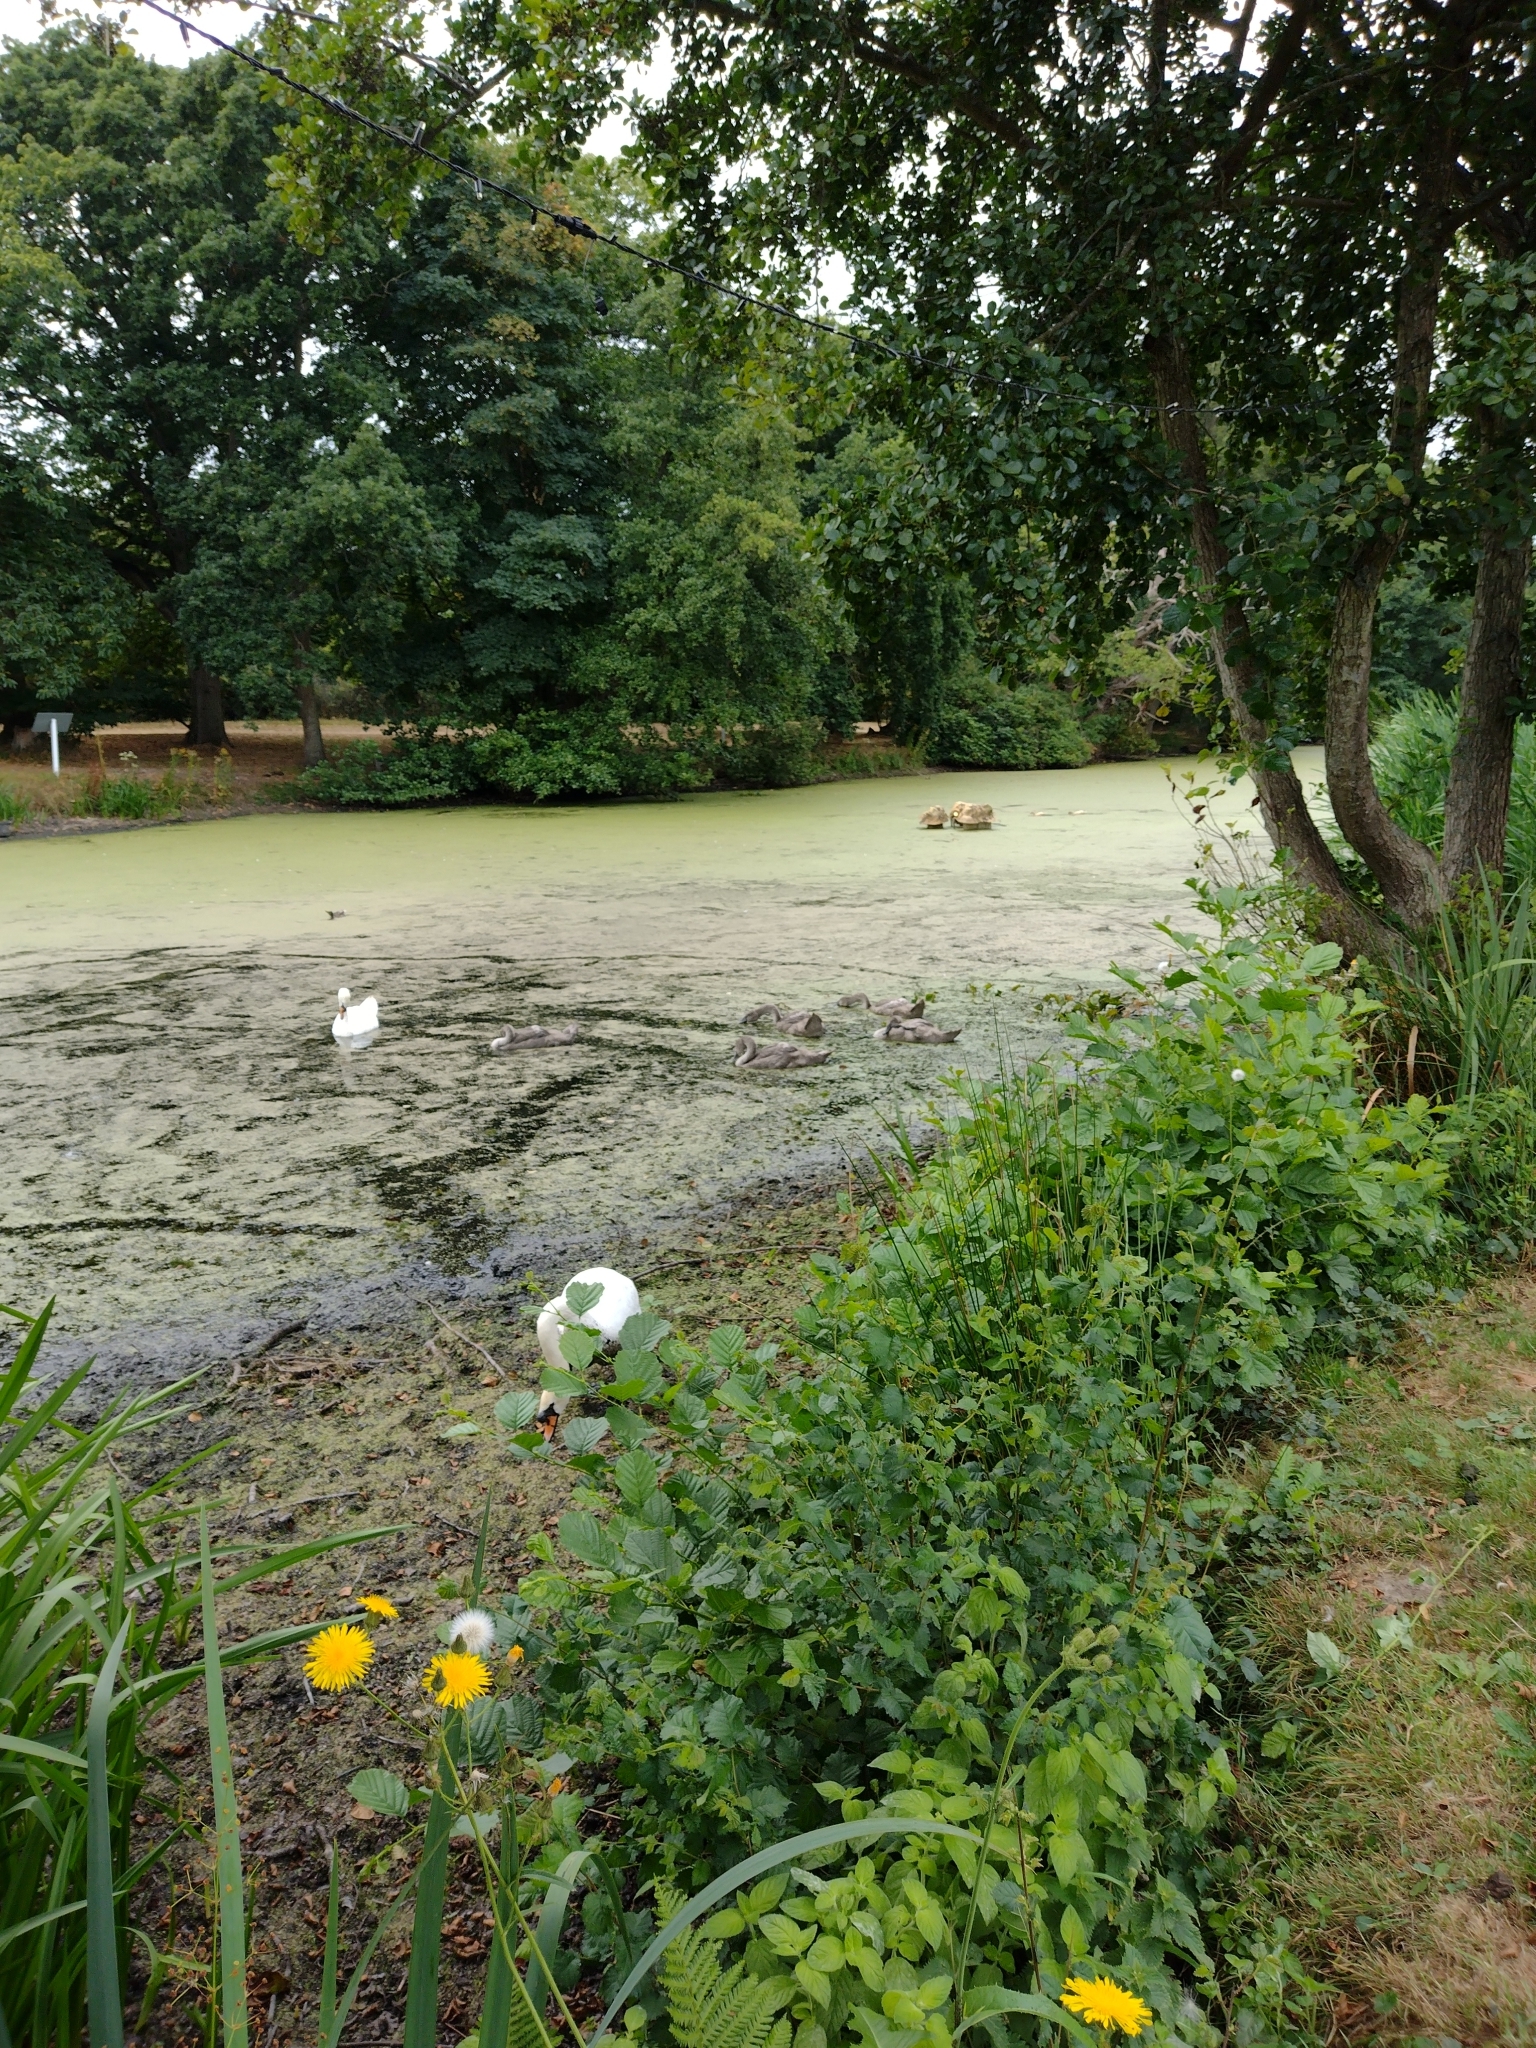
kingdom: Animalia
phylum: Chordata
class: Aves
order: Anseriformes
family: Anatidae
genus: Cygnus
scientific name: Cygnus olor
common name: Mute swan
